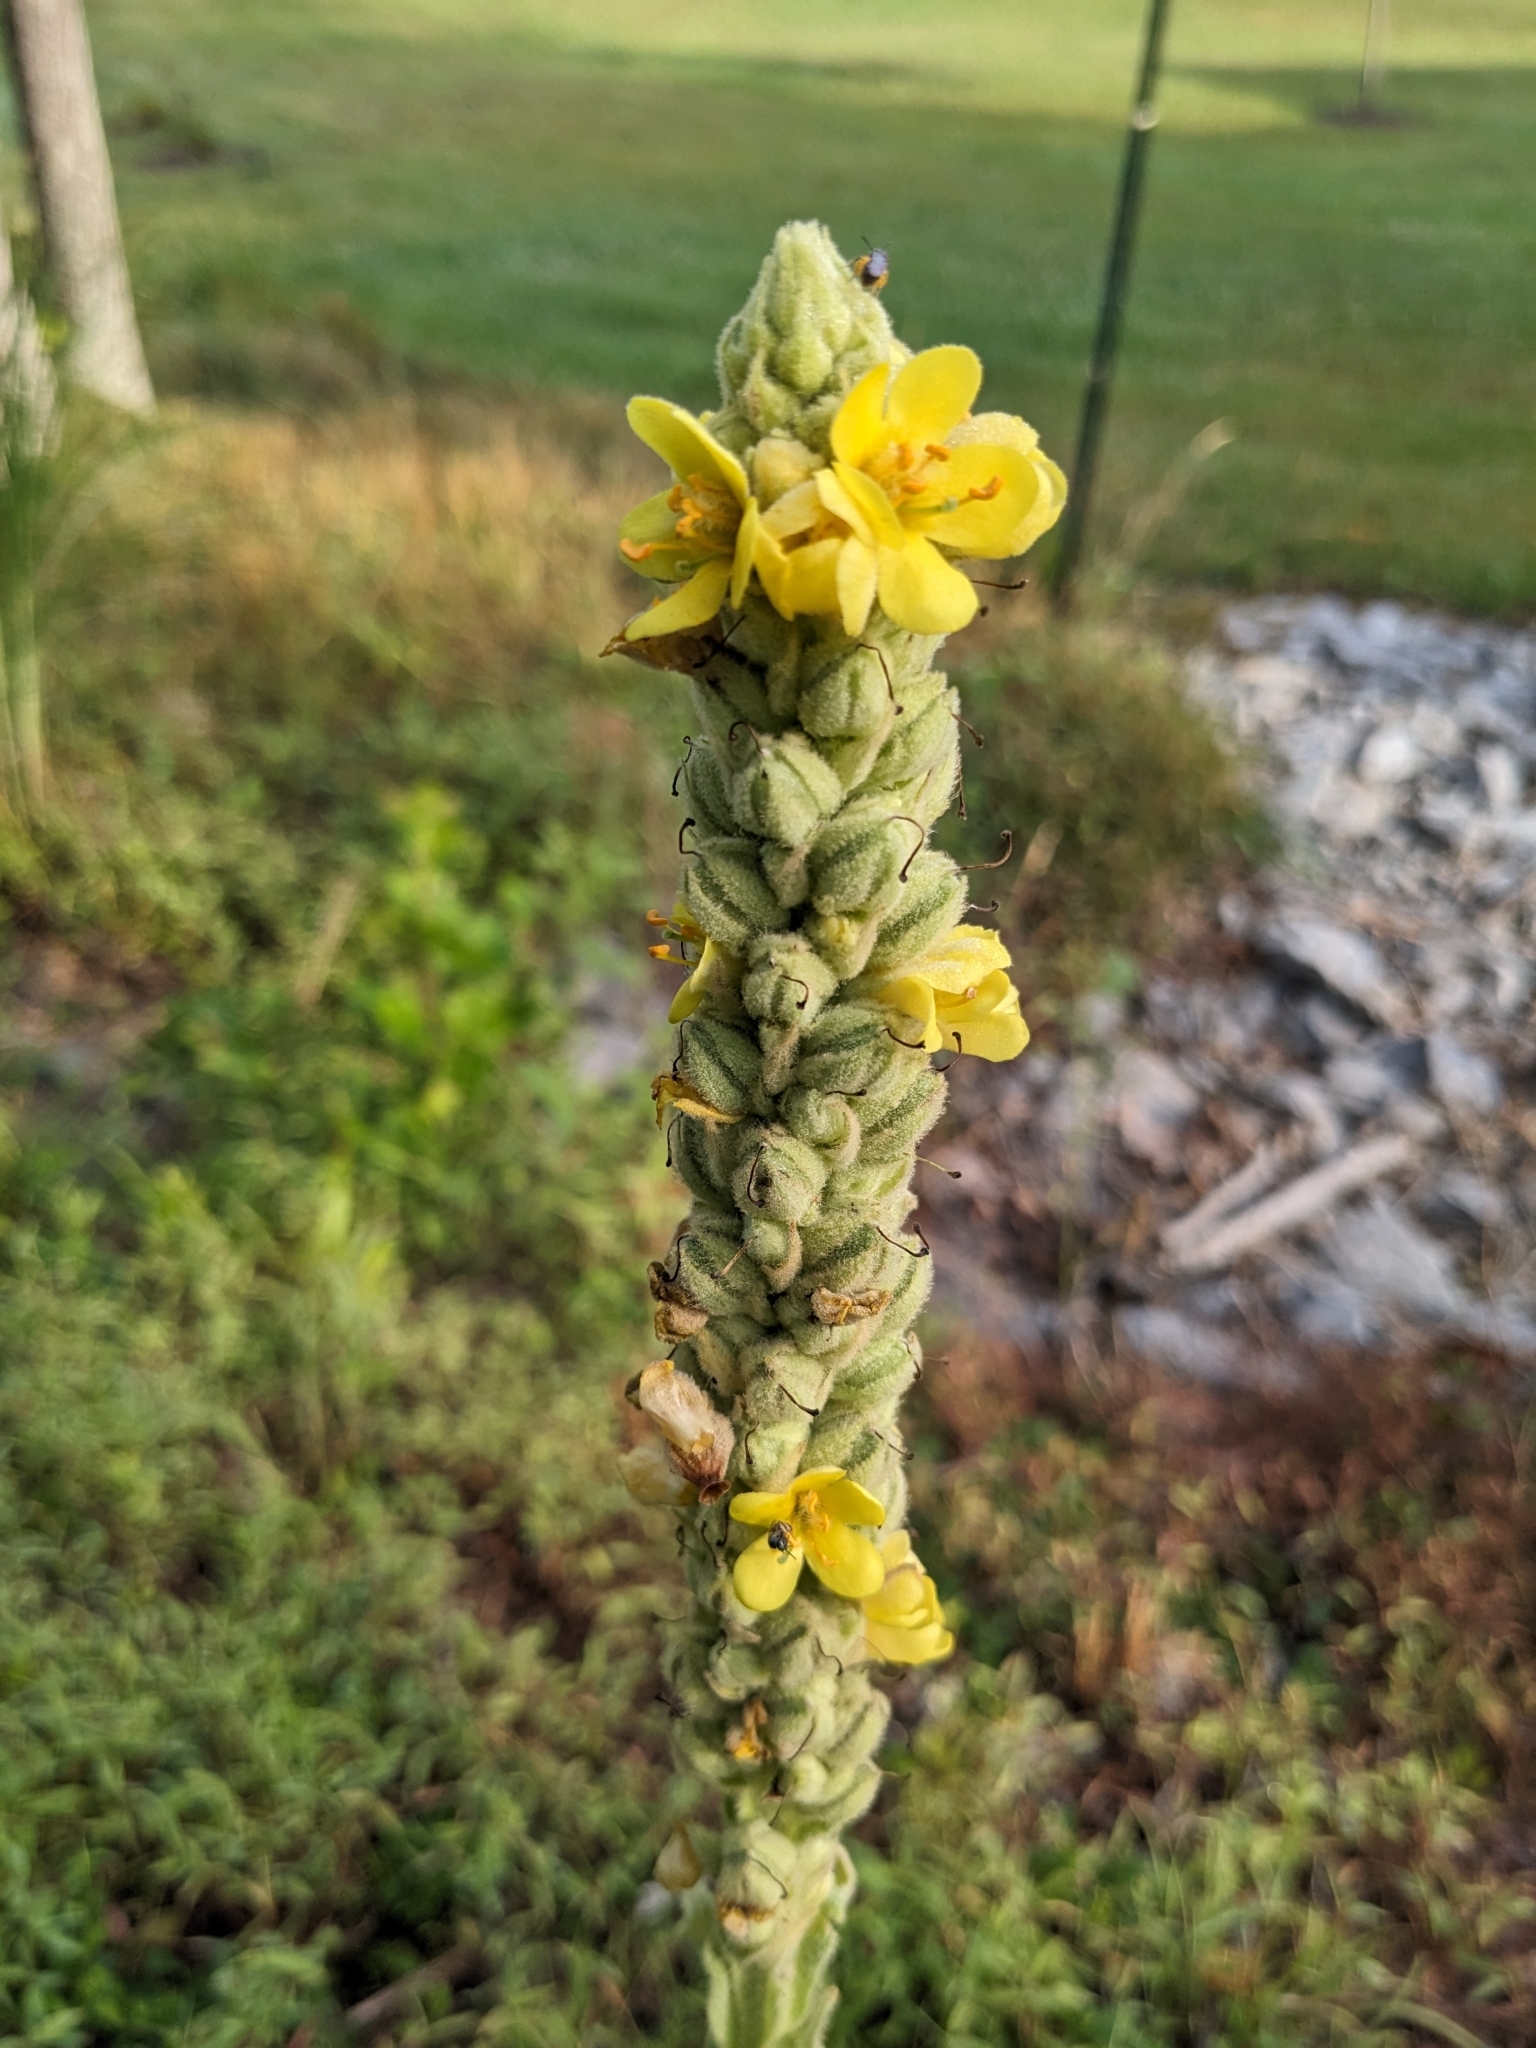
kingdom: Plantae
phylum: Tracheophyta
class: Magnoliopsida
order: Lamiales
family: Scrophulariaceae
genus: Verbascum
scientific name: Verbascum thapsus
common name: Common mullein
